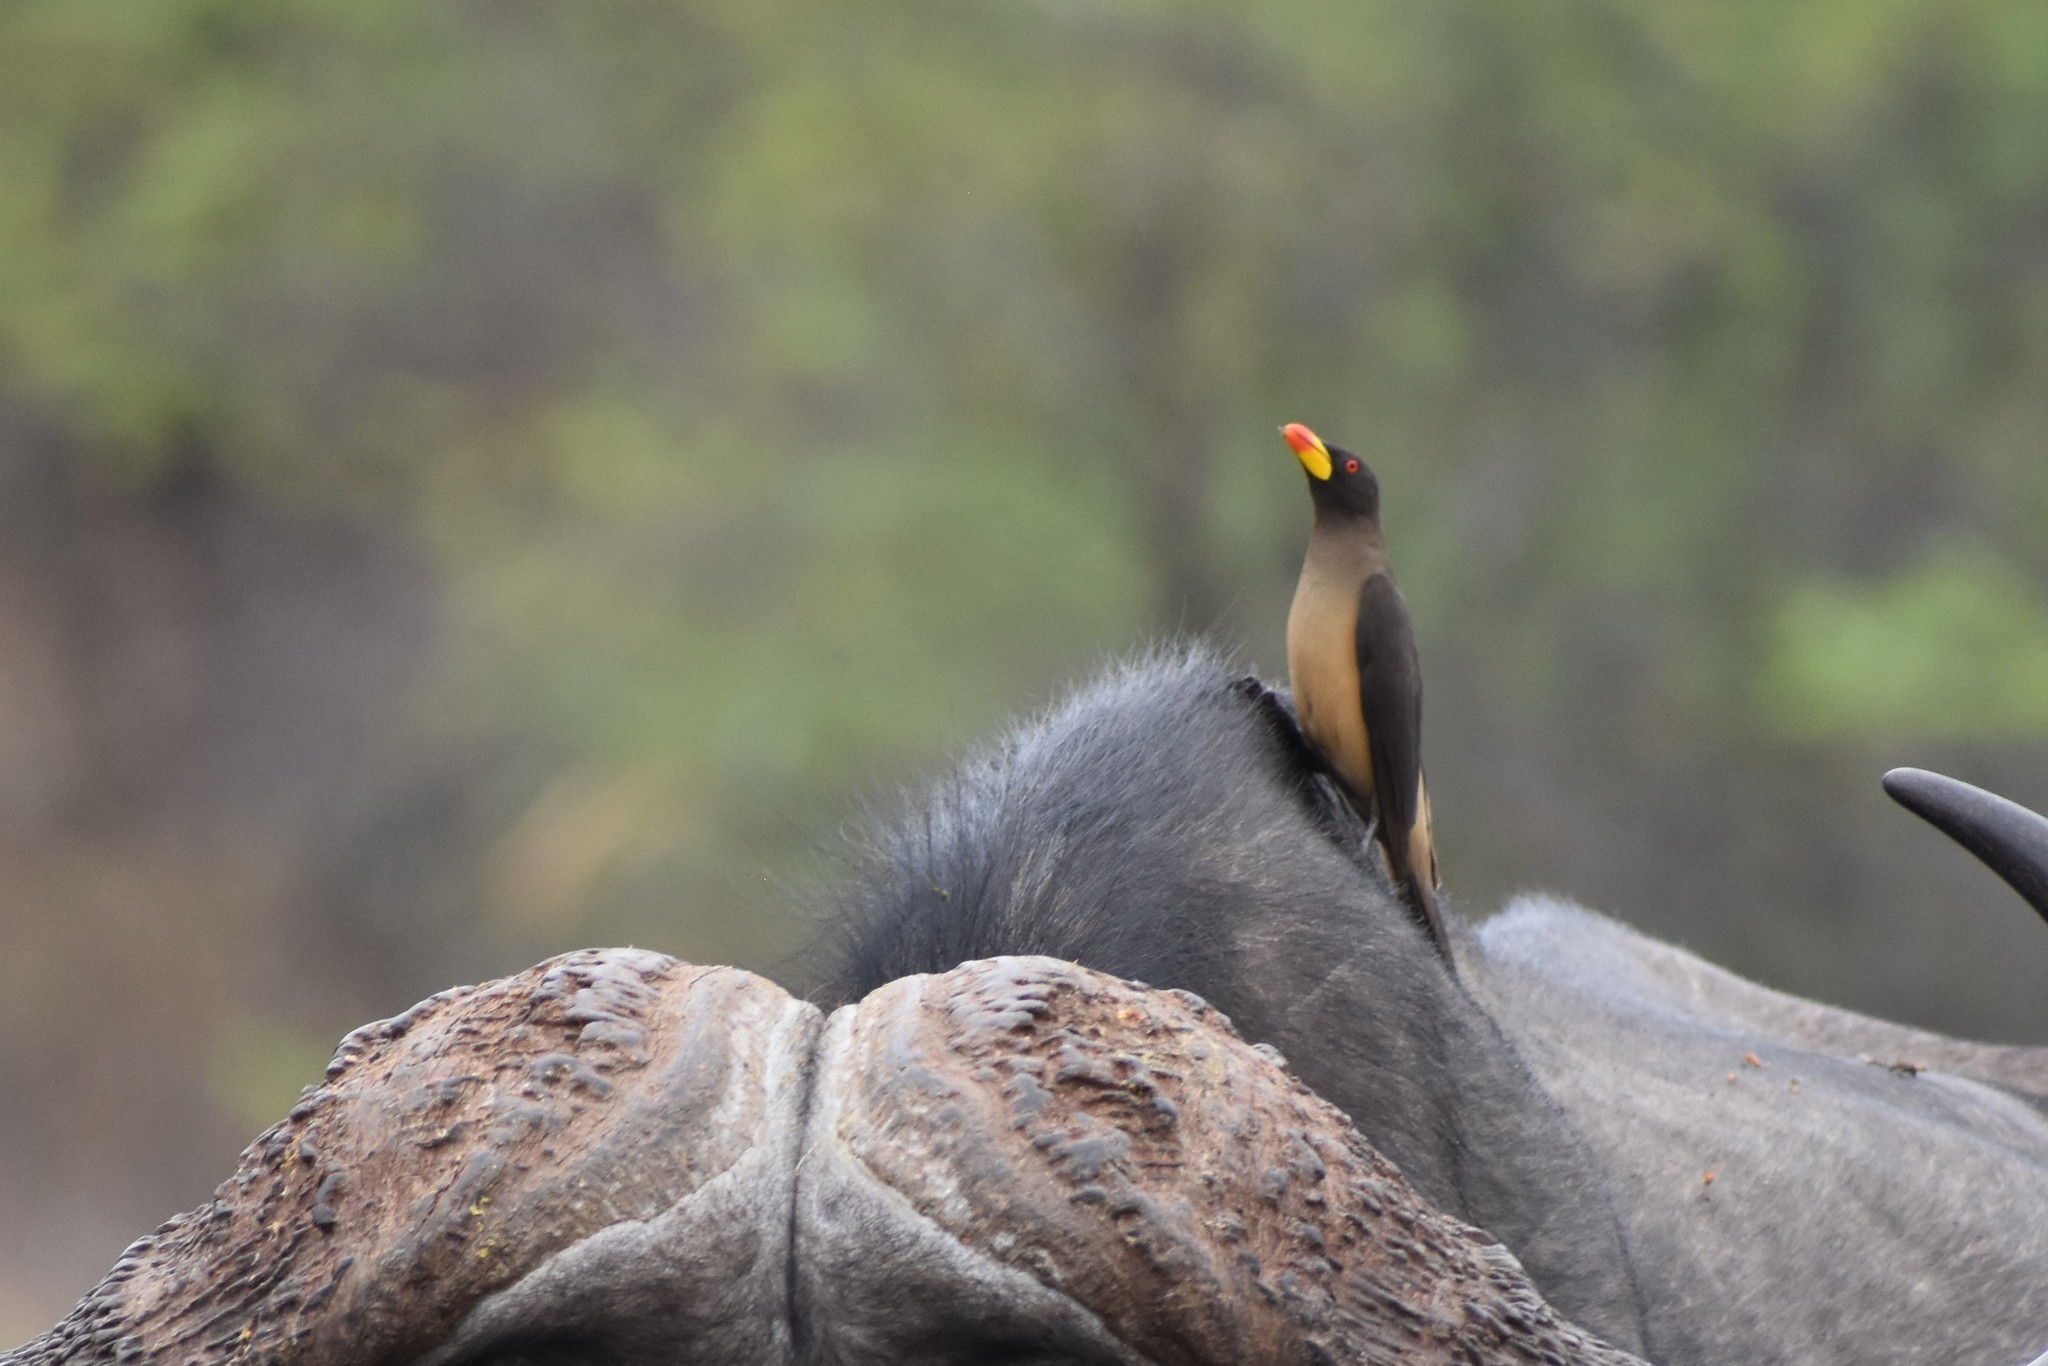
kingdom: Animalia
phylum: Chordata
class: Aves
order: Passeriformes
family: Buphagidae
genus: Buphagus
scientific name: Buphagus africanus
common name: Yellow-billed oxpecker
